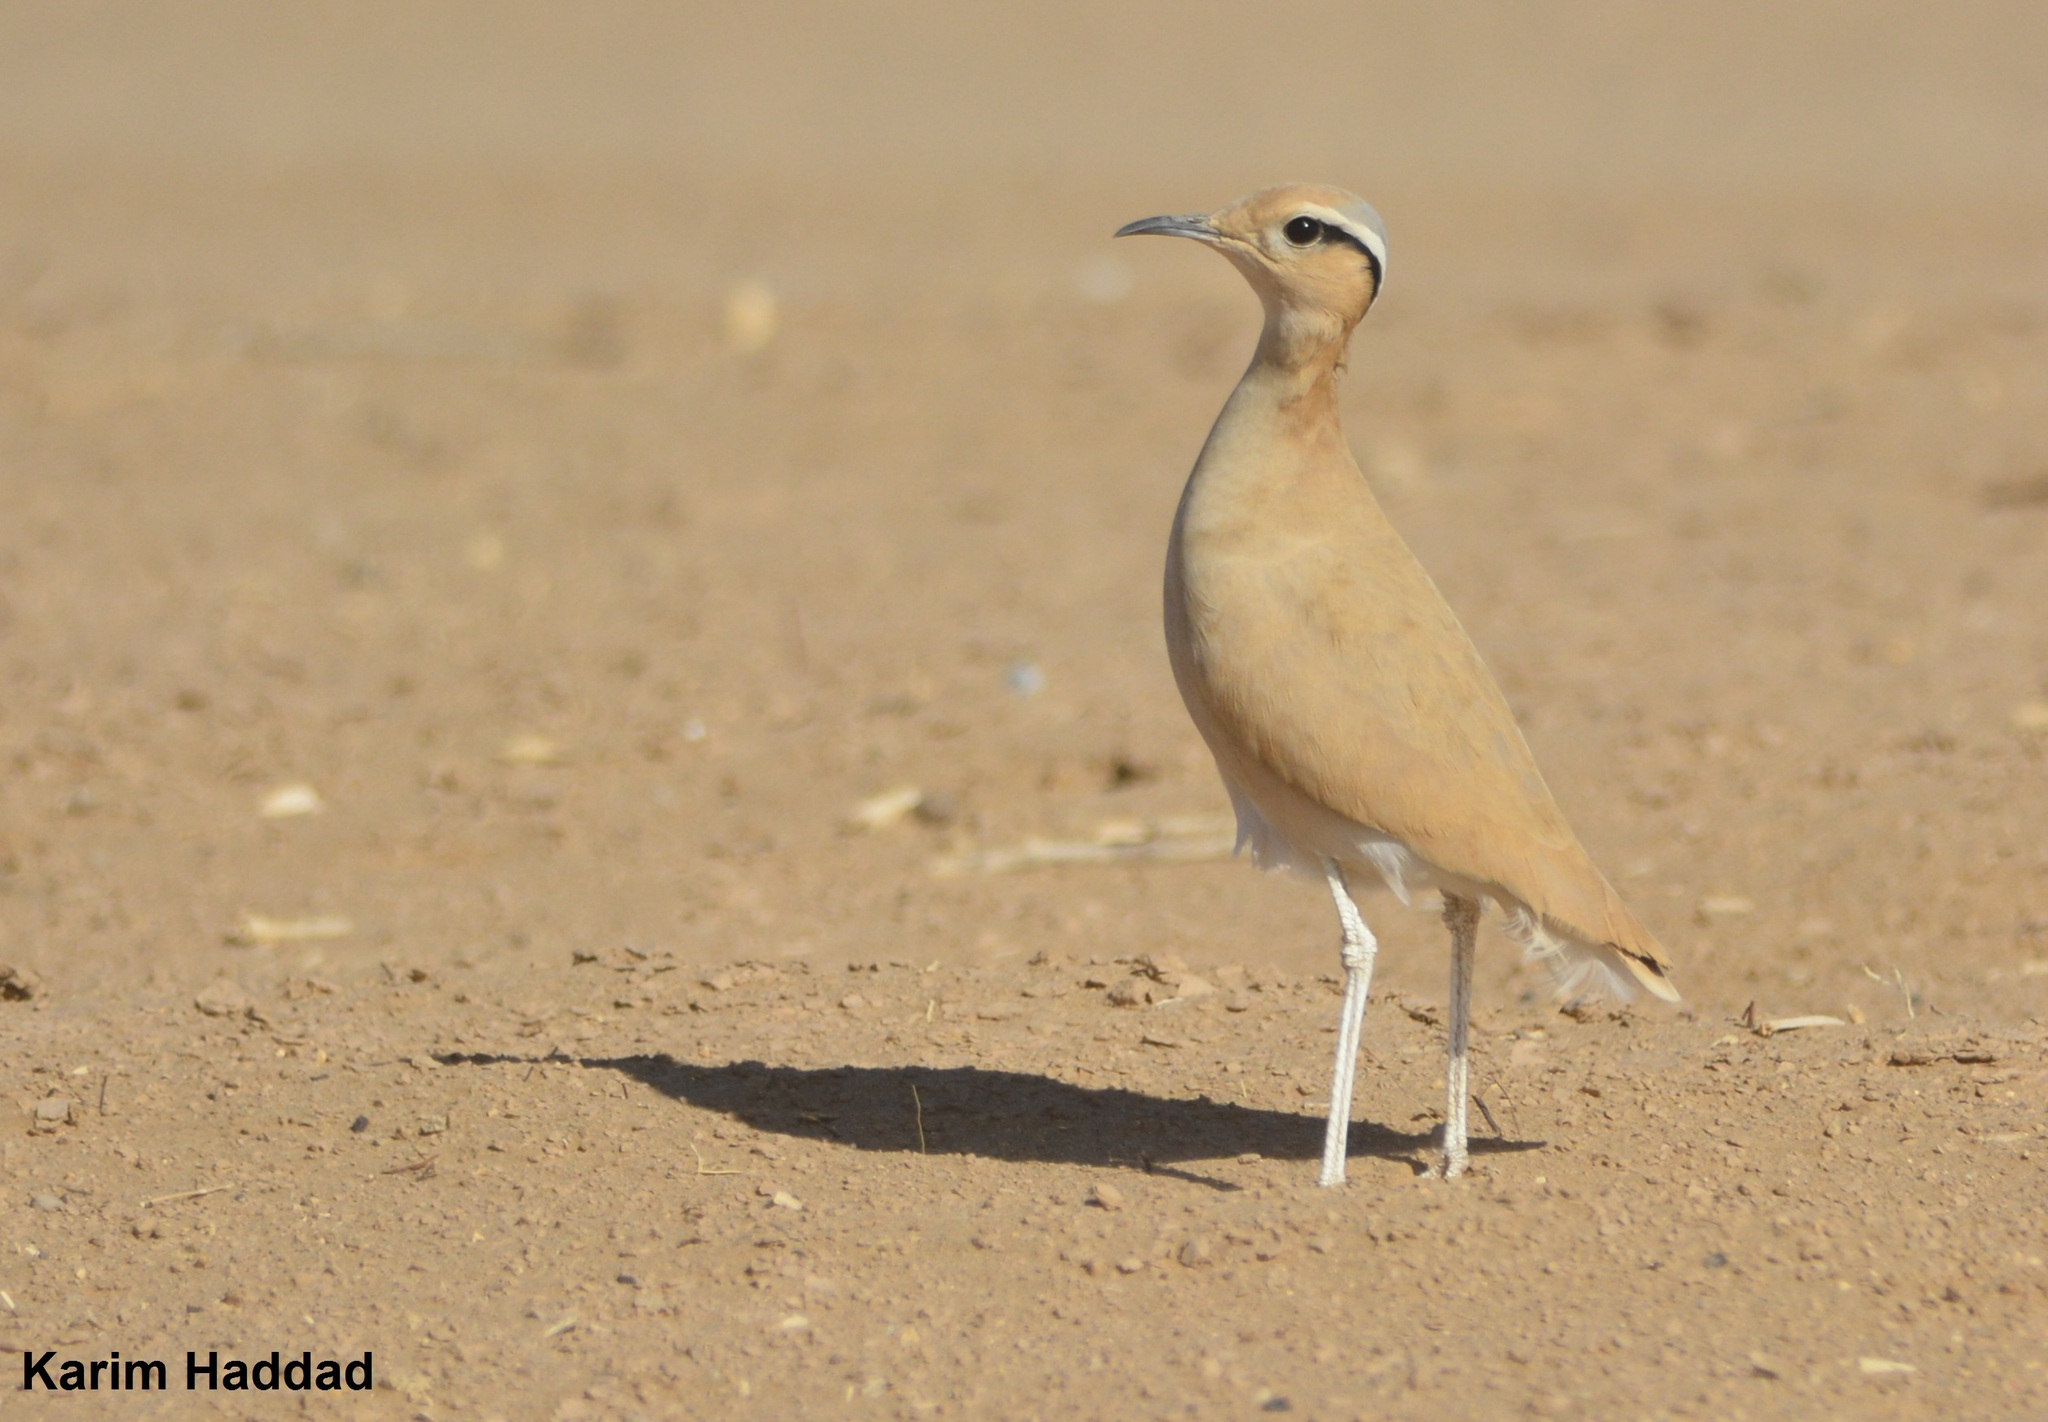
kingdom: Animalia
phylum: Chordata
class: Aves
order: Charadriiformes
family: Glareolidae
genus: Cursorius
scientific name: Cursorius cursor
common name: Cream-colored courser
